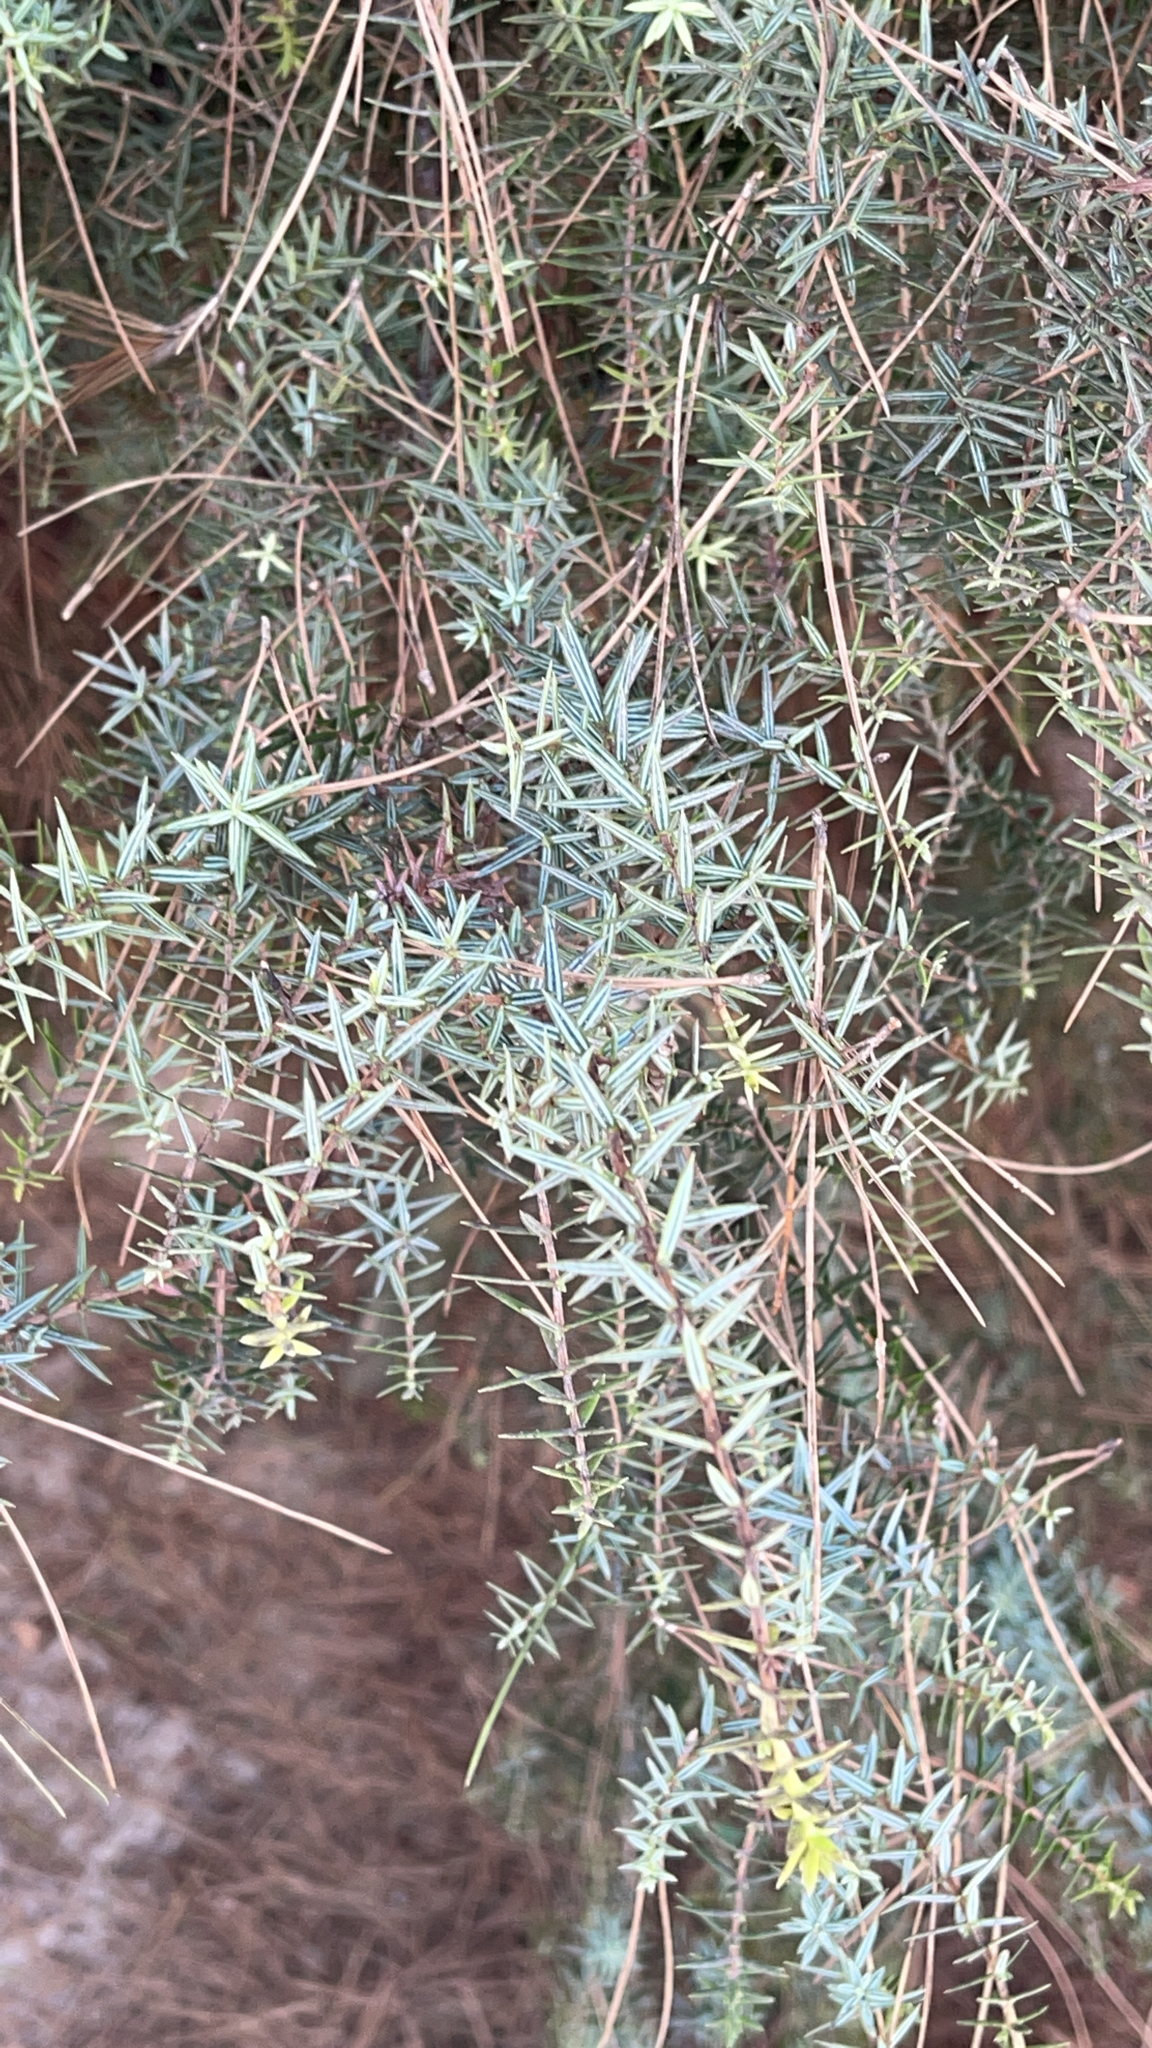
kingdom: Plantae
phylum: Tracheophyta
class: Pinopsida
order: Pinales
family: Cupressaceae
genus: Juniperus
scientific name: Juniperus oxycedrus
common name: Prickly juniper
